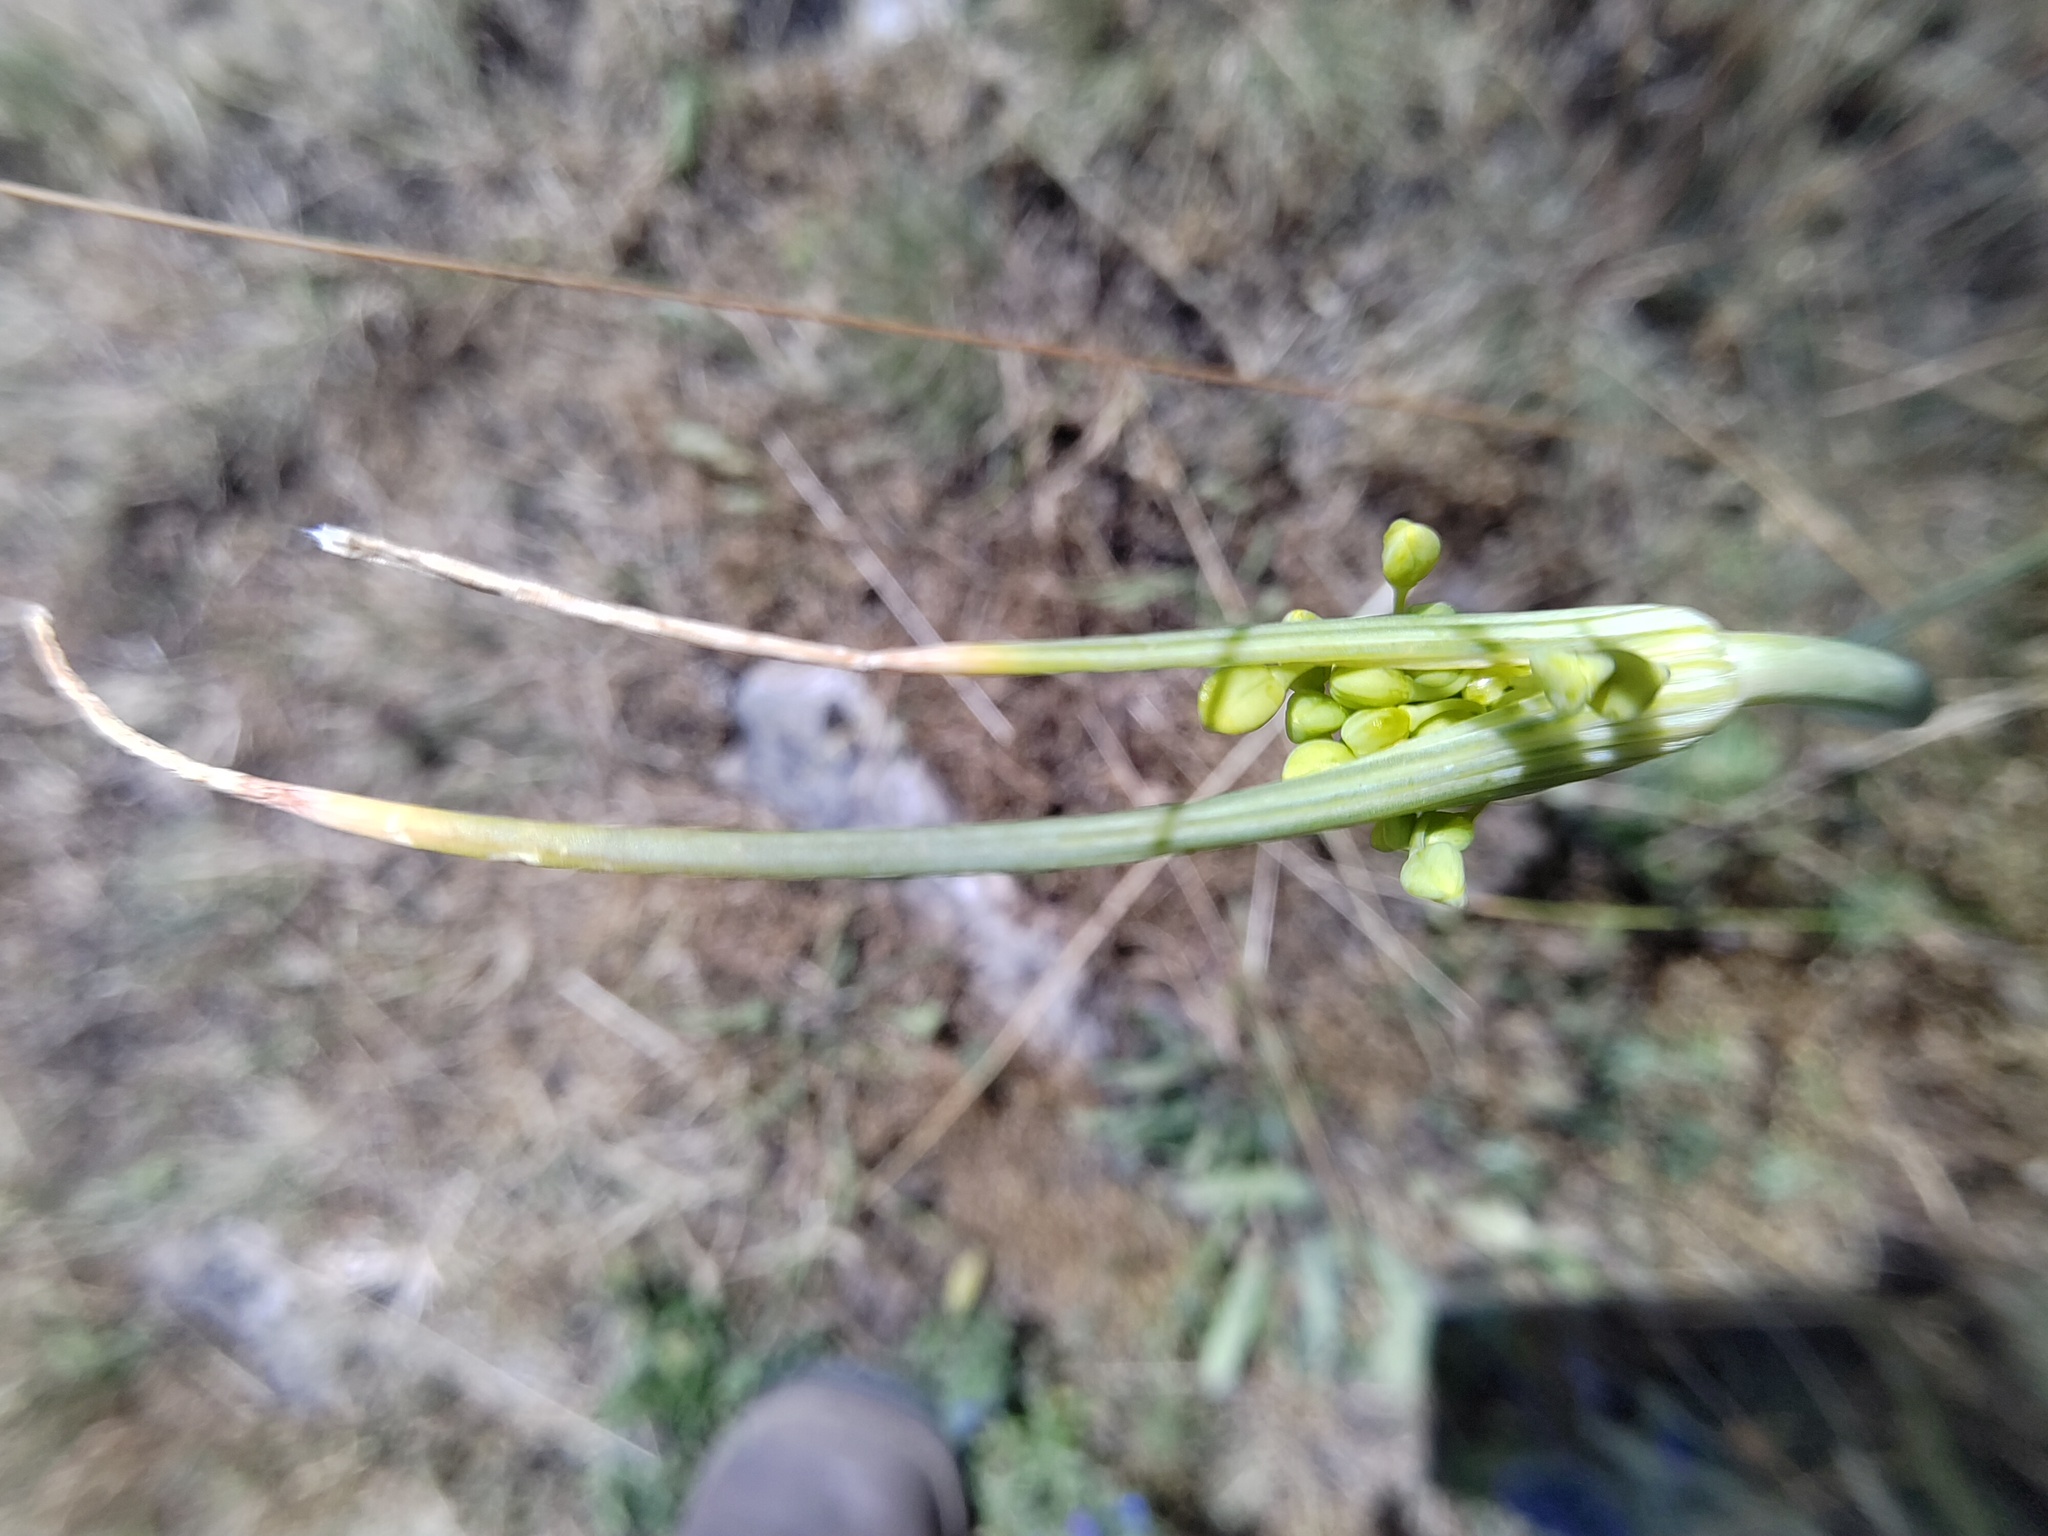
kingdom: Plantae
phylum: Tracheophyta
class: Liliopsida
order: Asparagales
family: Amaryllidaceae
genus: Allium
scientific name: Allium flavum
